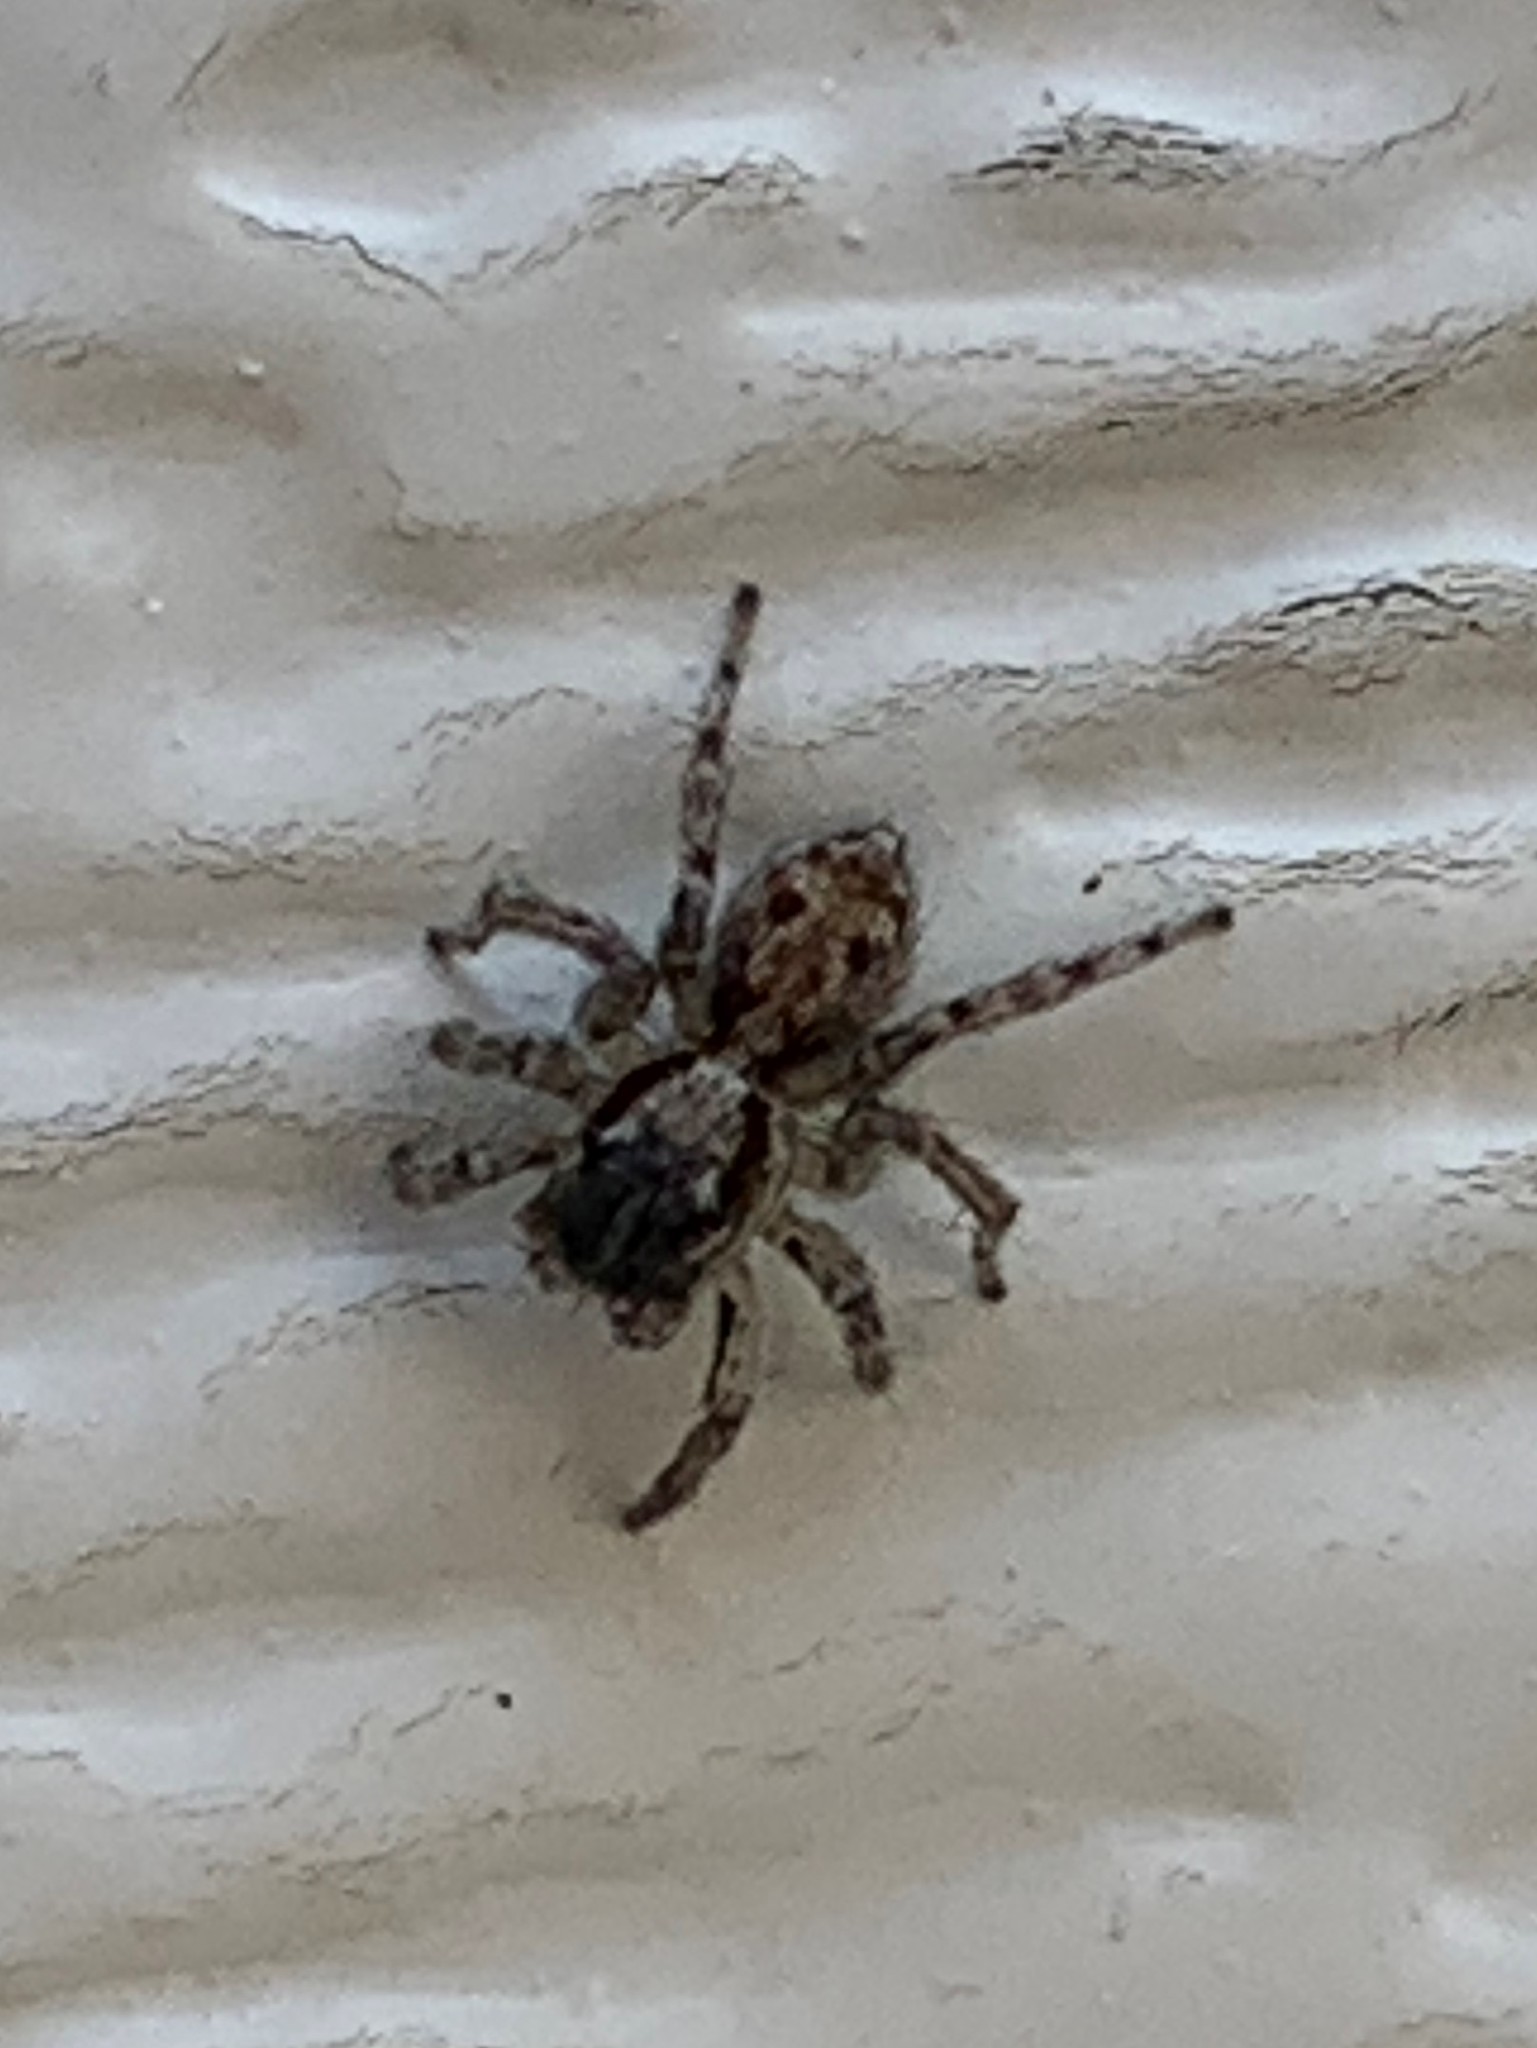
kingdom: Animalia
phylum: Arthropoda
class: Arachnida
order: Araneae
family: Salticidae
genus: Naphrys
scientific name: Naphrys pulex
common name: Flea jumping spider
